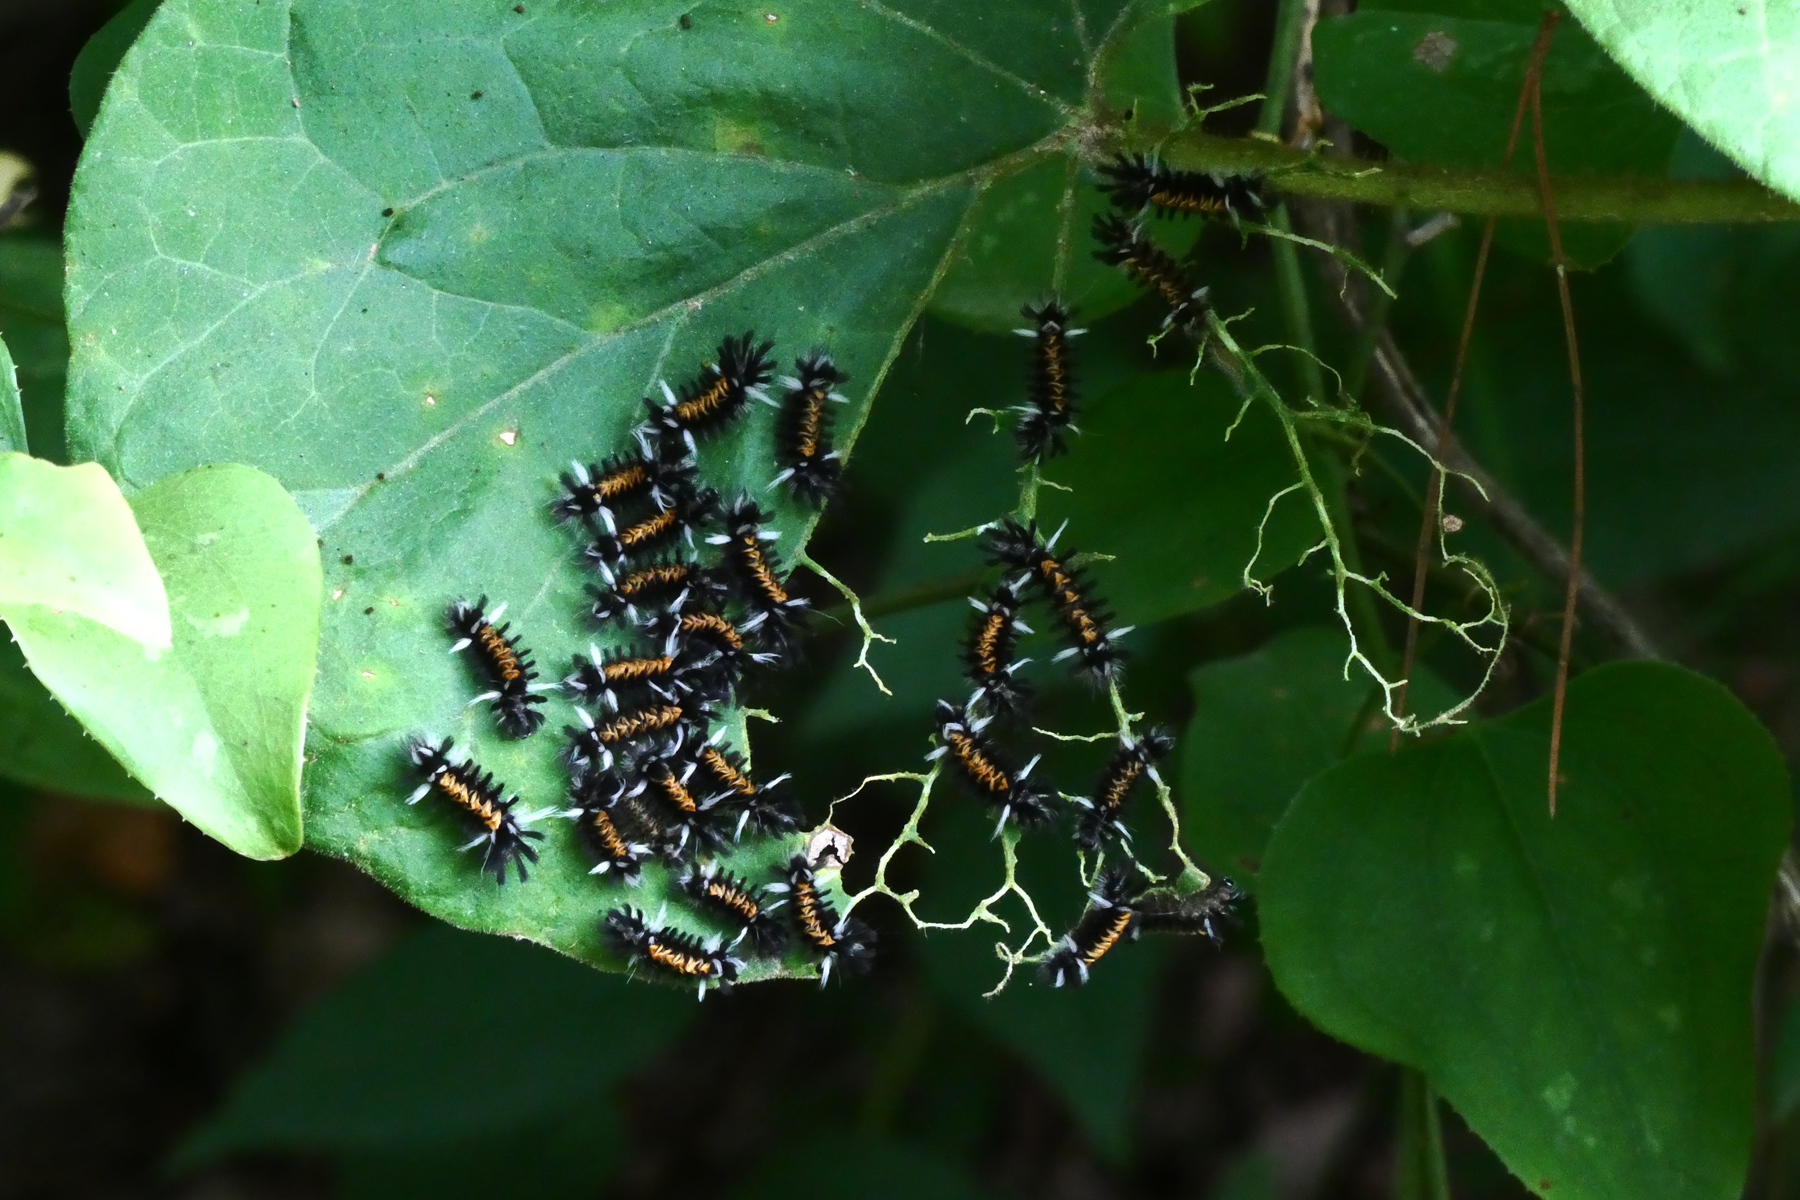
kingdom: Animalia
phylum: Arthropoda
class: Insecta
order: Lepidoptera
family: Erebidae
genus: Euchaetes
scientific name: Euchaetes egle
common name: Milkweed tussock moth
